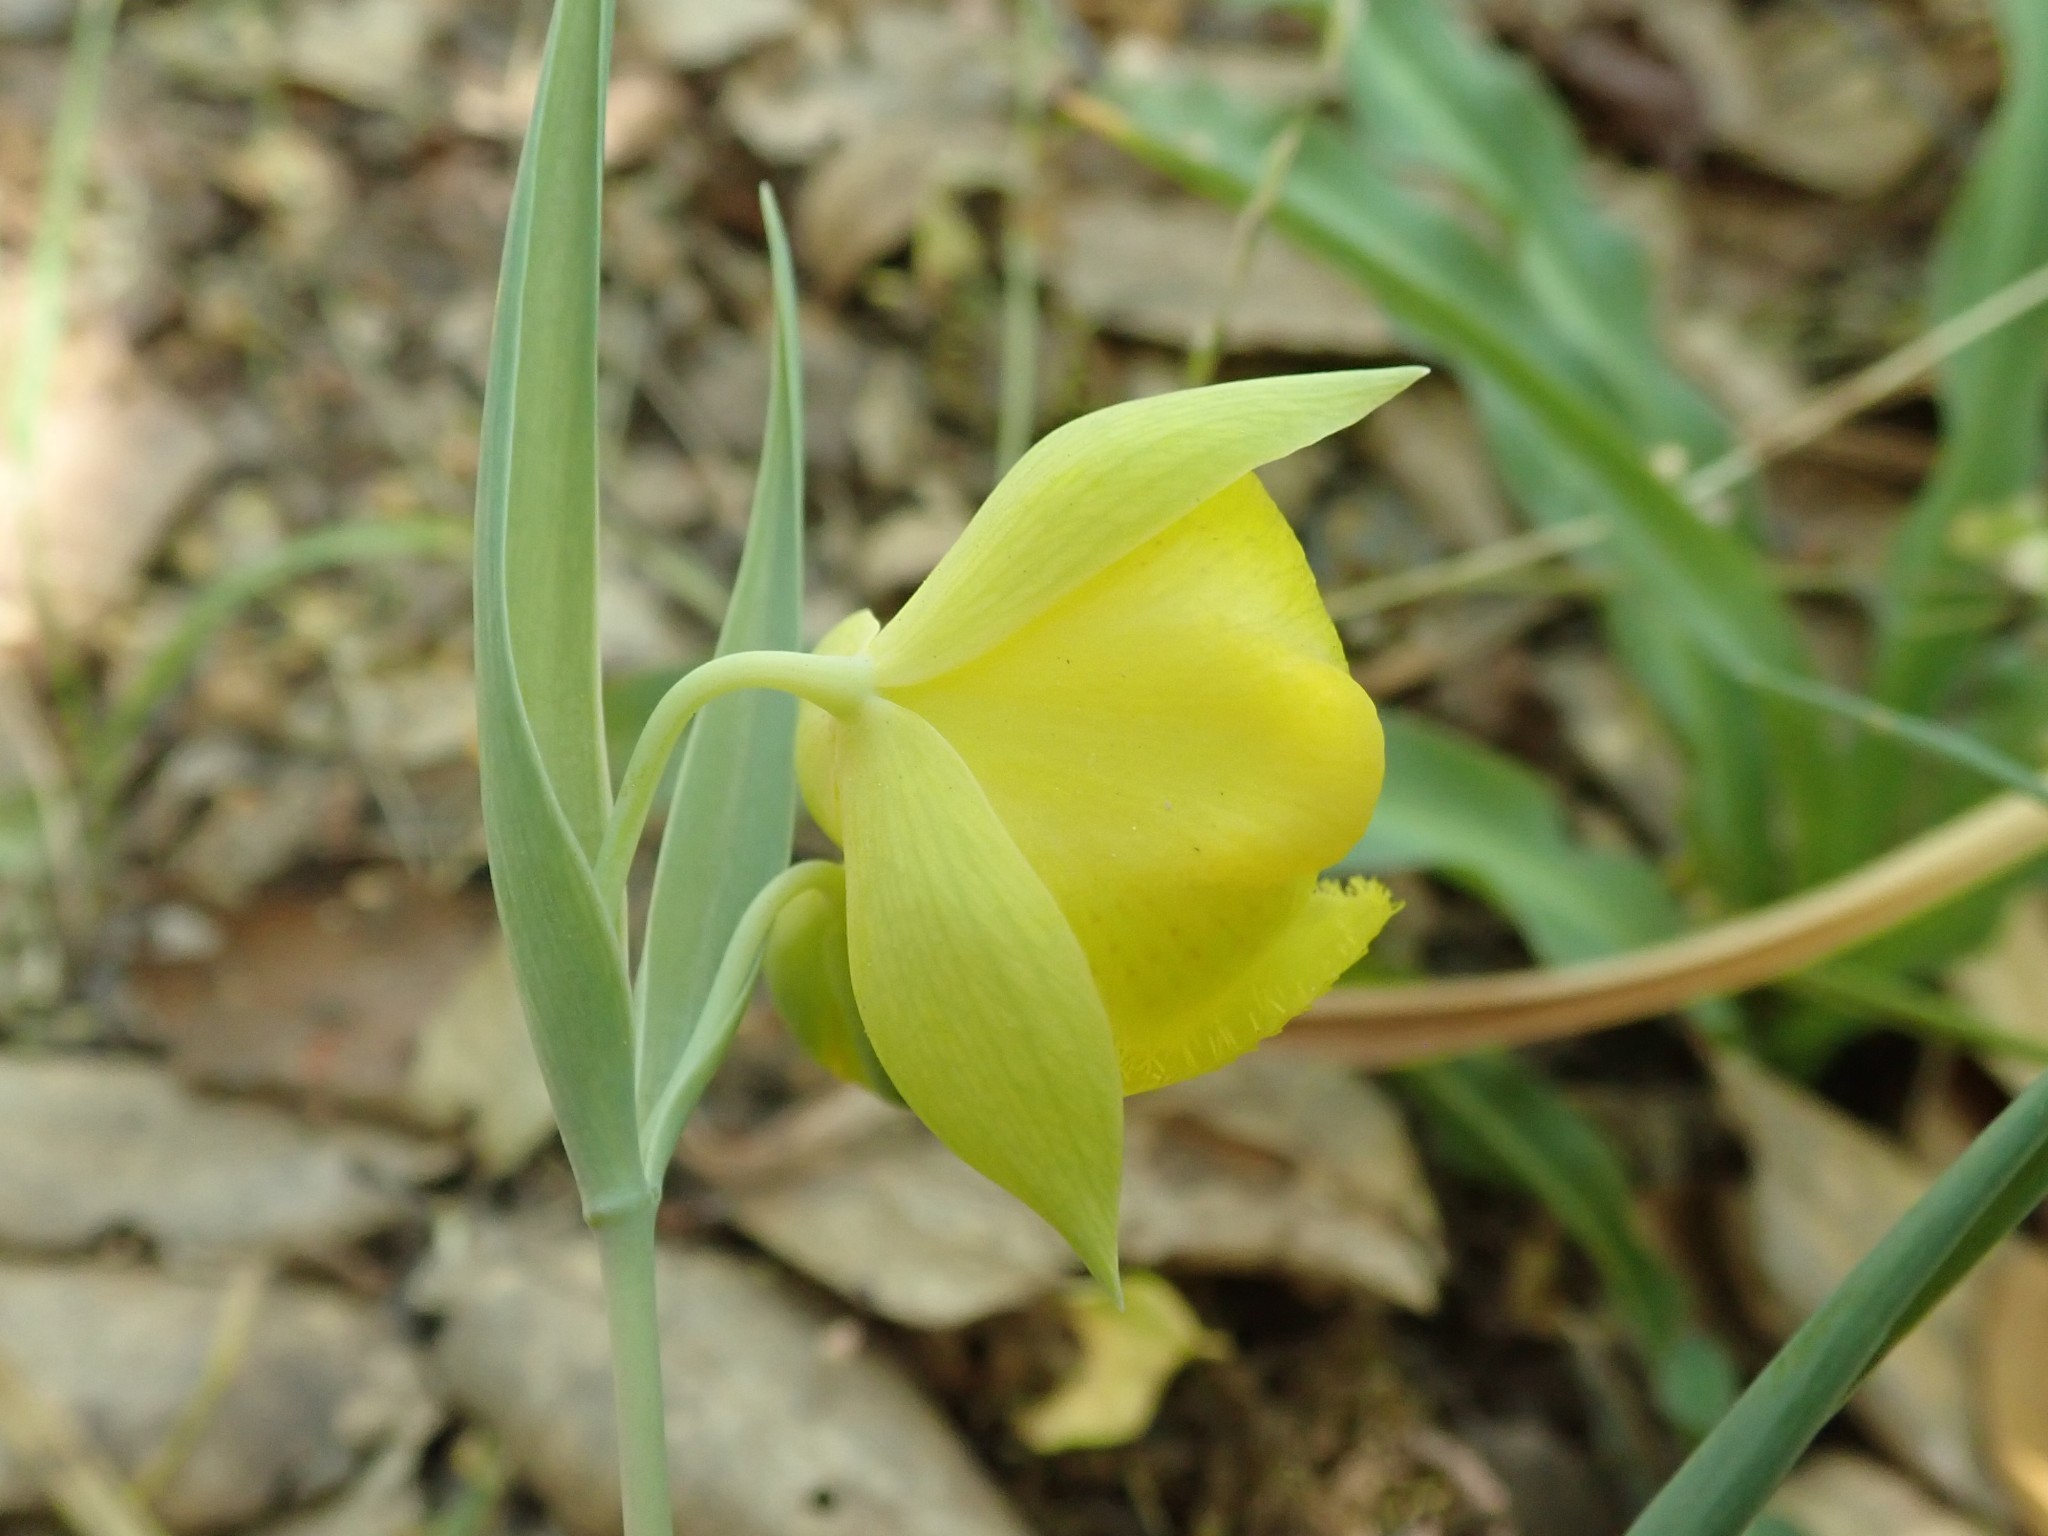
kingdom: Plantae
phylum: Tracheophyta
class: Liliopsida
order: Liliales
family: Liliaceae
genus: Calochortus
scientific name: Calochortus pulchellus
